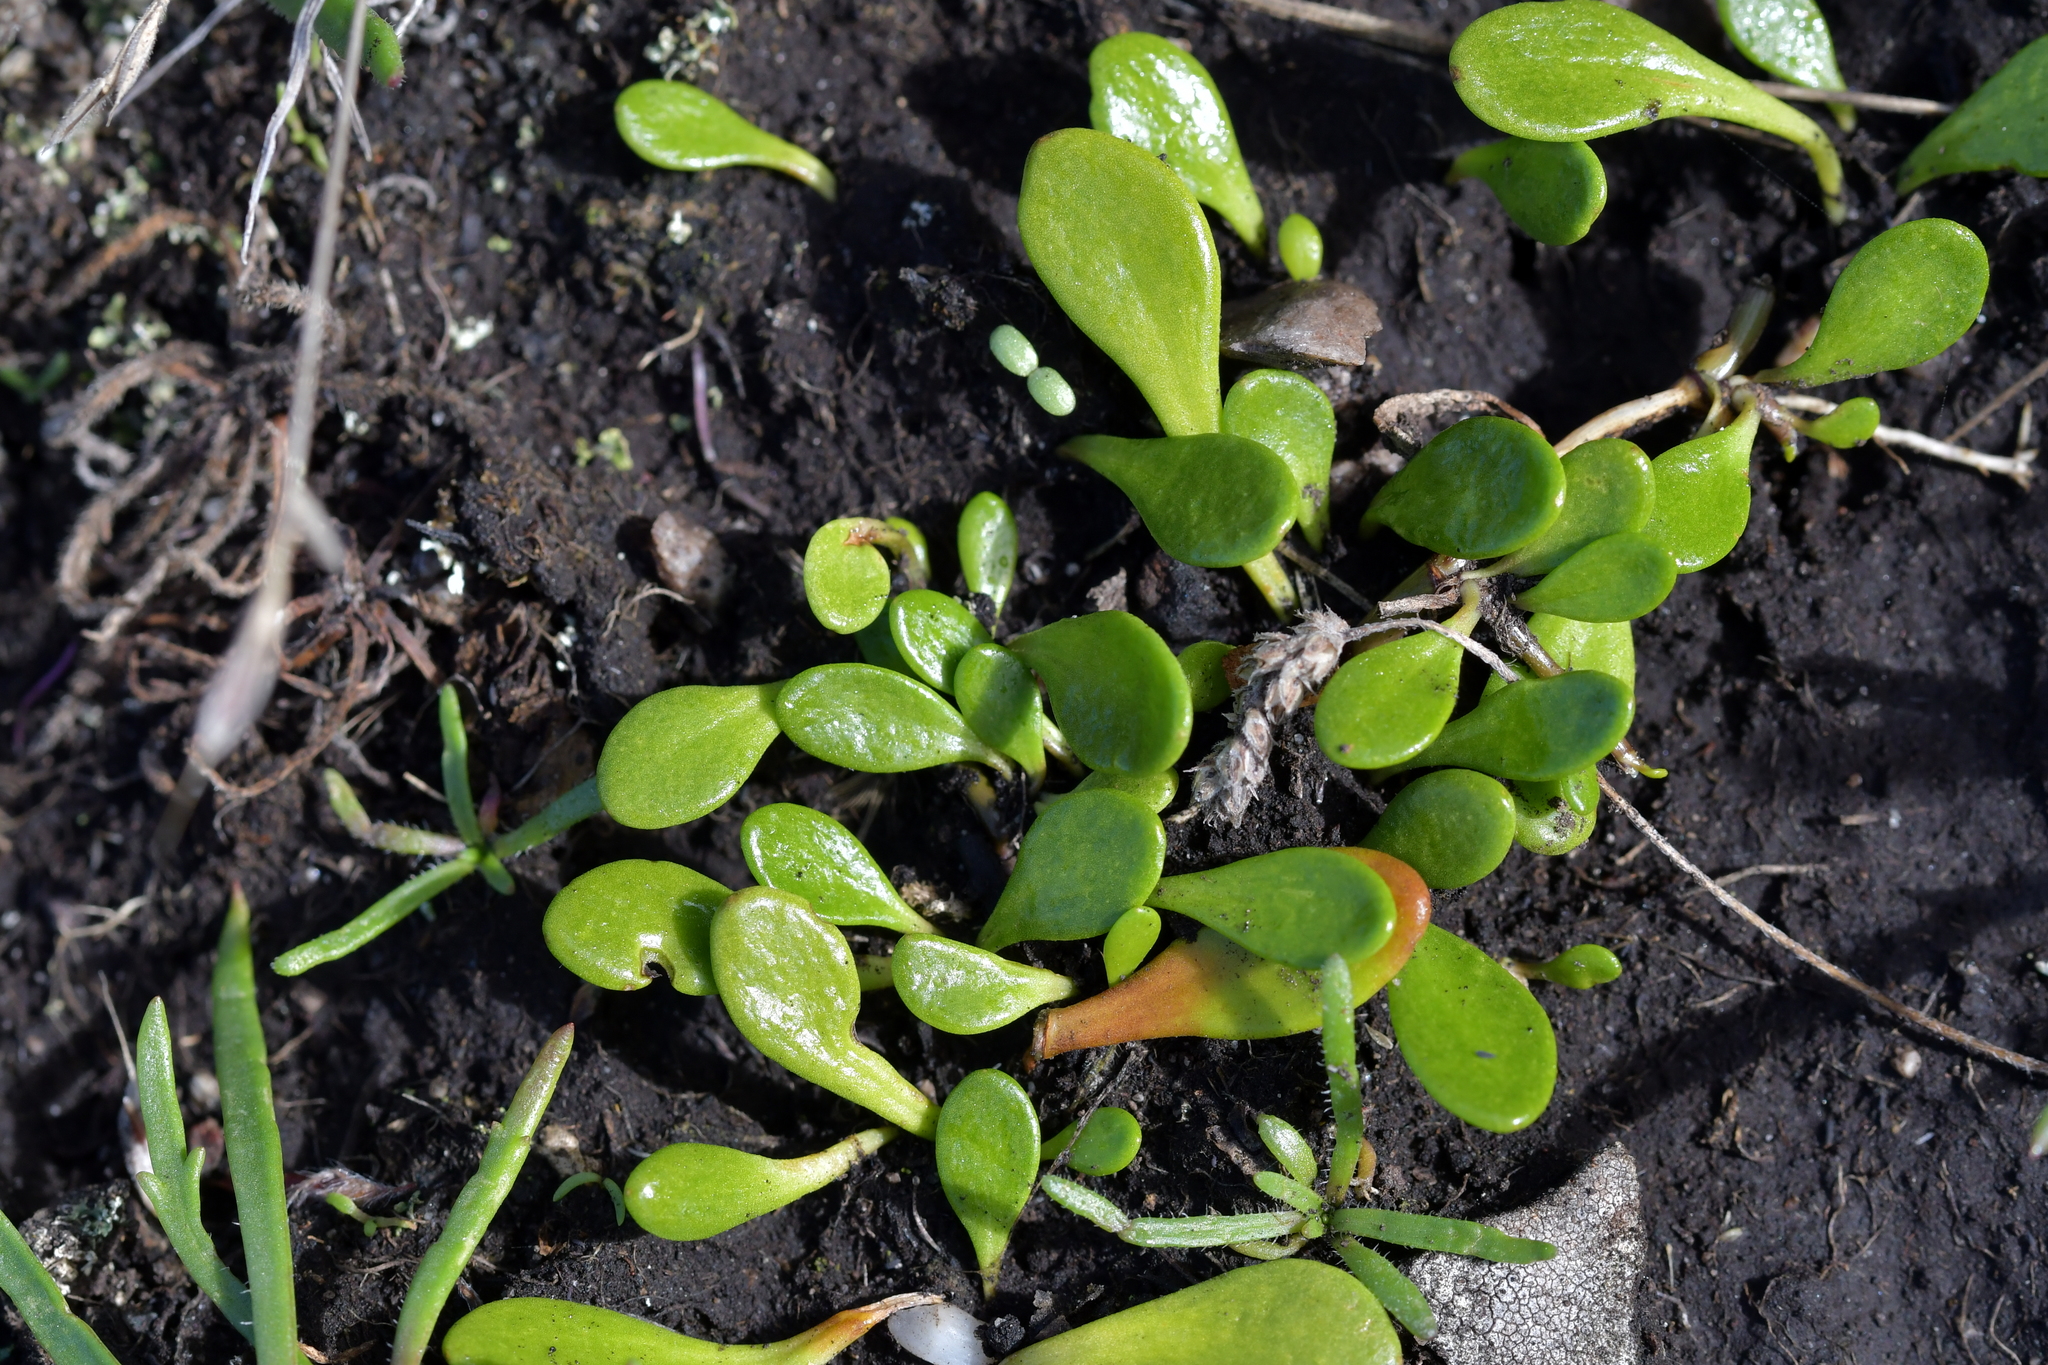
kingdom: Plantae
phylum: Tracheophyta
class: Magnoliopsida
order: Asterales
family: Goodeniaceae
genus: Goodenia
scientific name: Goodenia radicans
